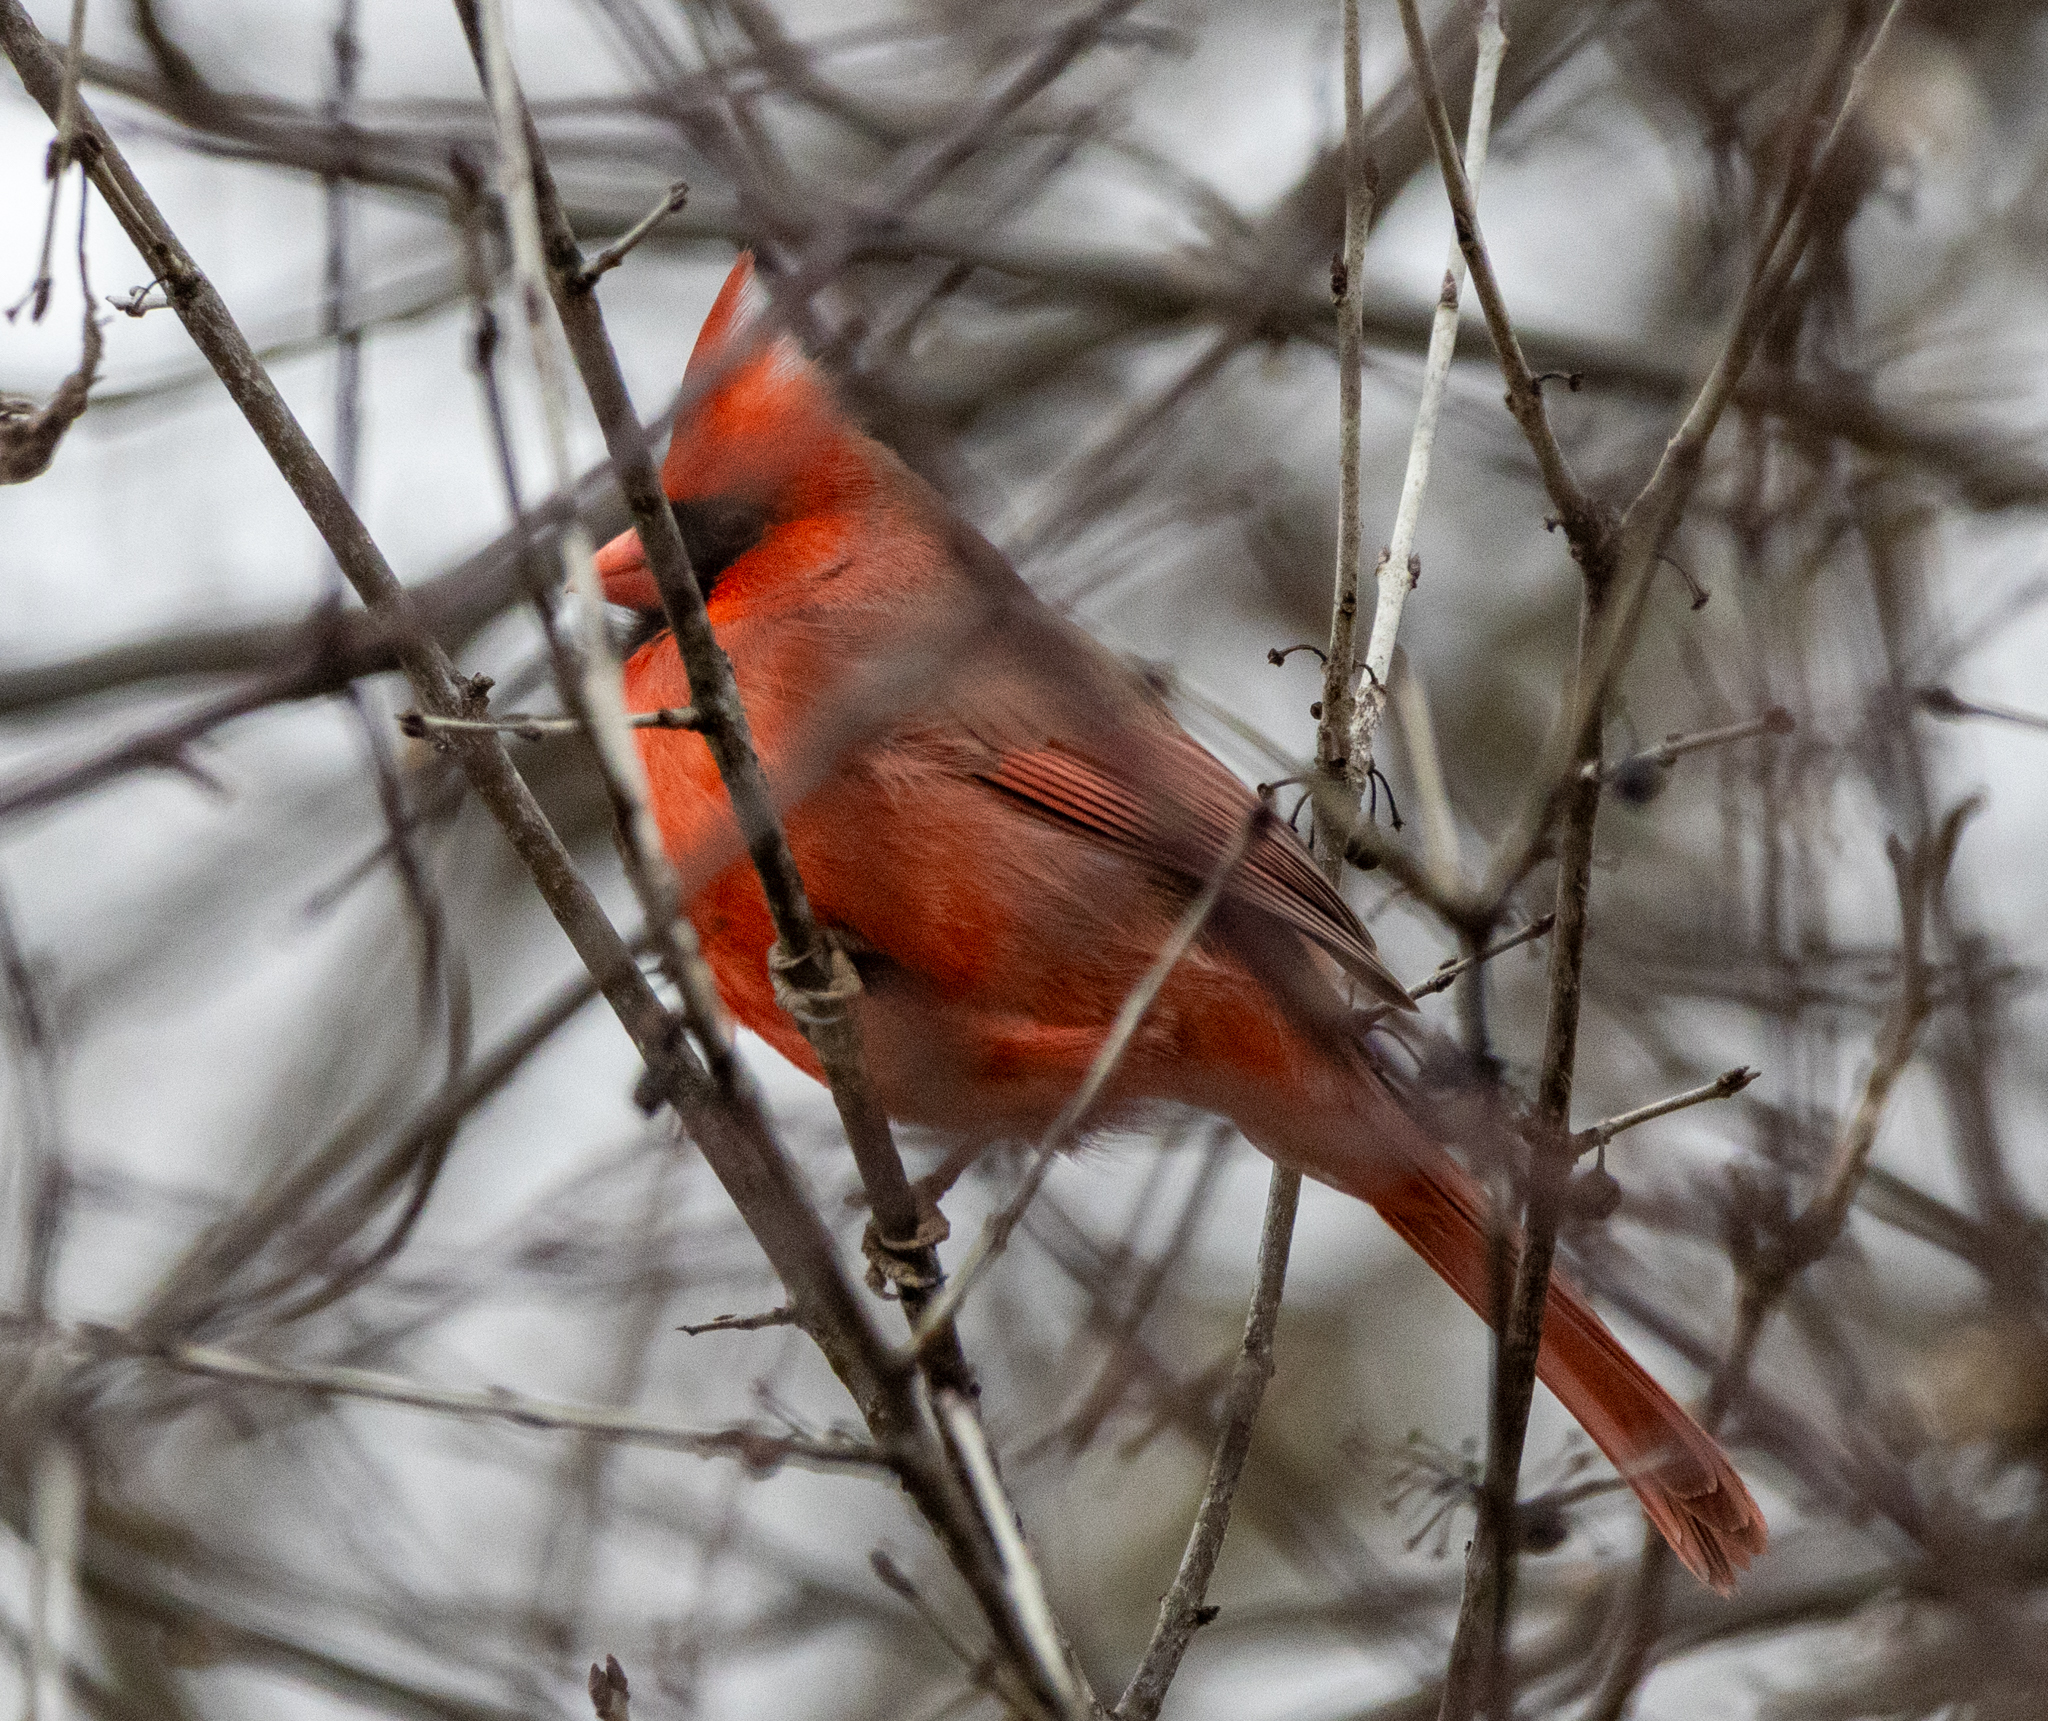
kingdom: Animalia
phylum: Chordata
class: Aves
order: Passeriformes
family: Cardinalidae
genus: Cardinalis
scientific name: Cardinalis cardinalis
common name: Northern cardinal
